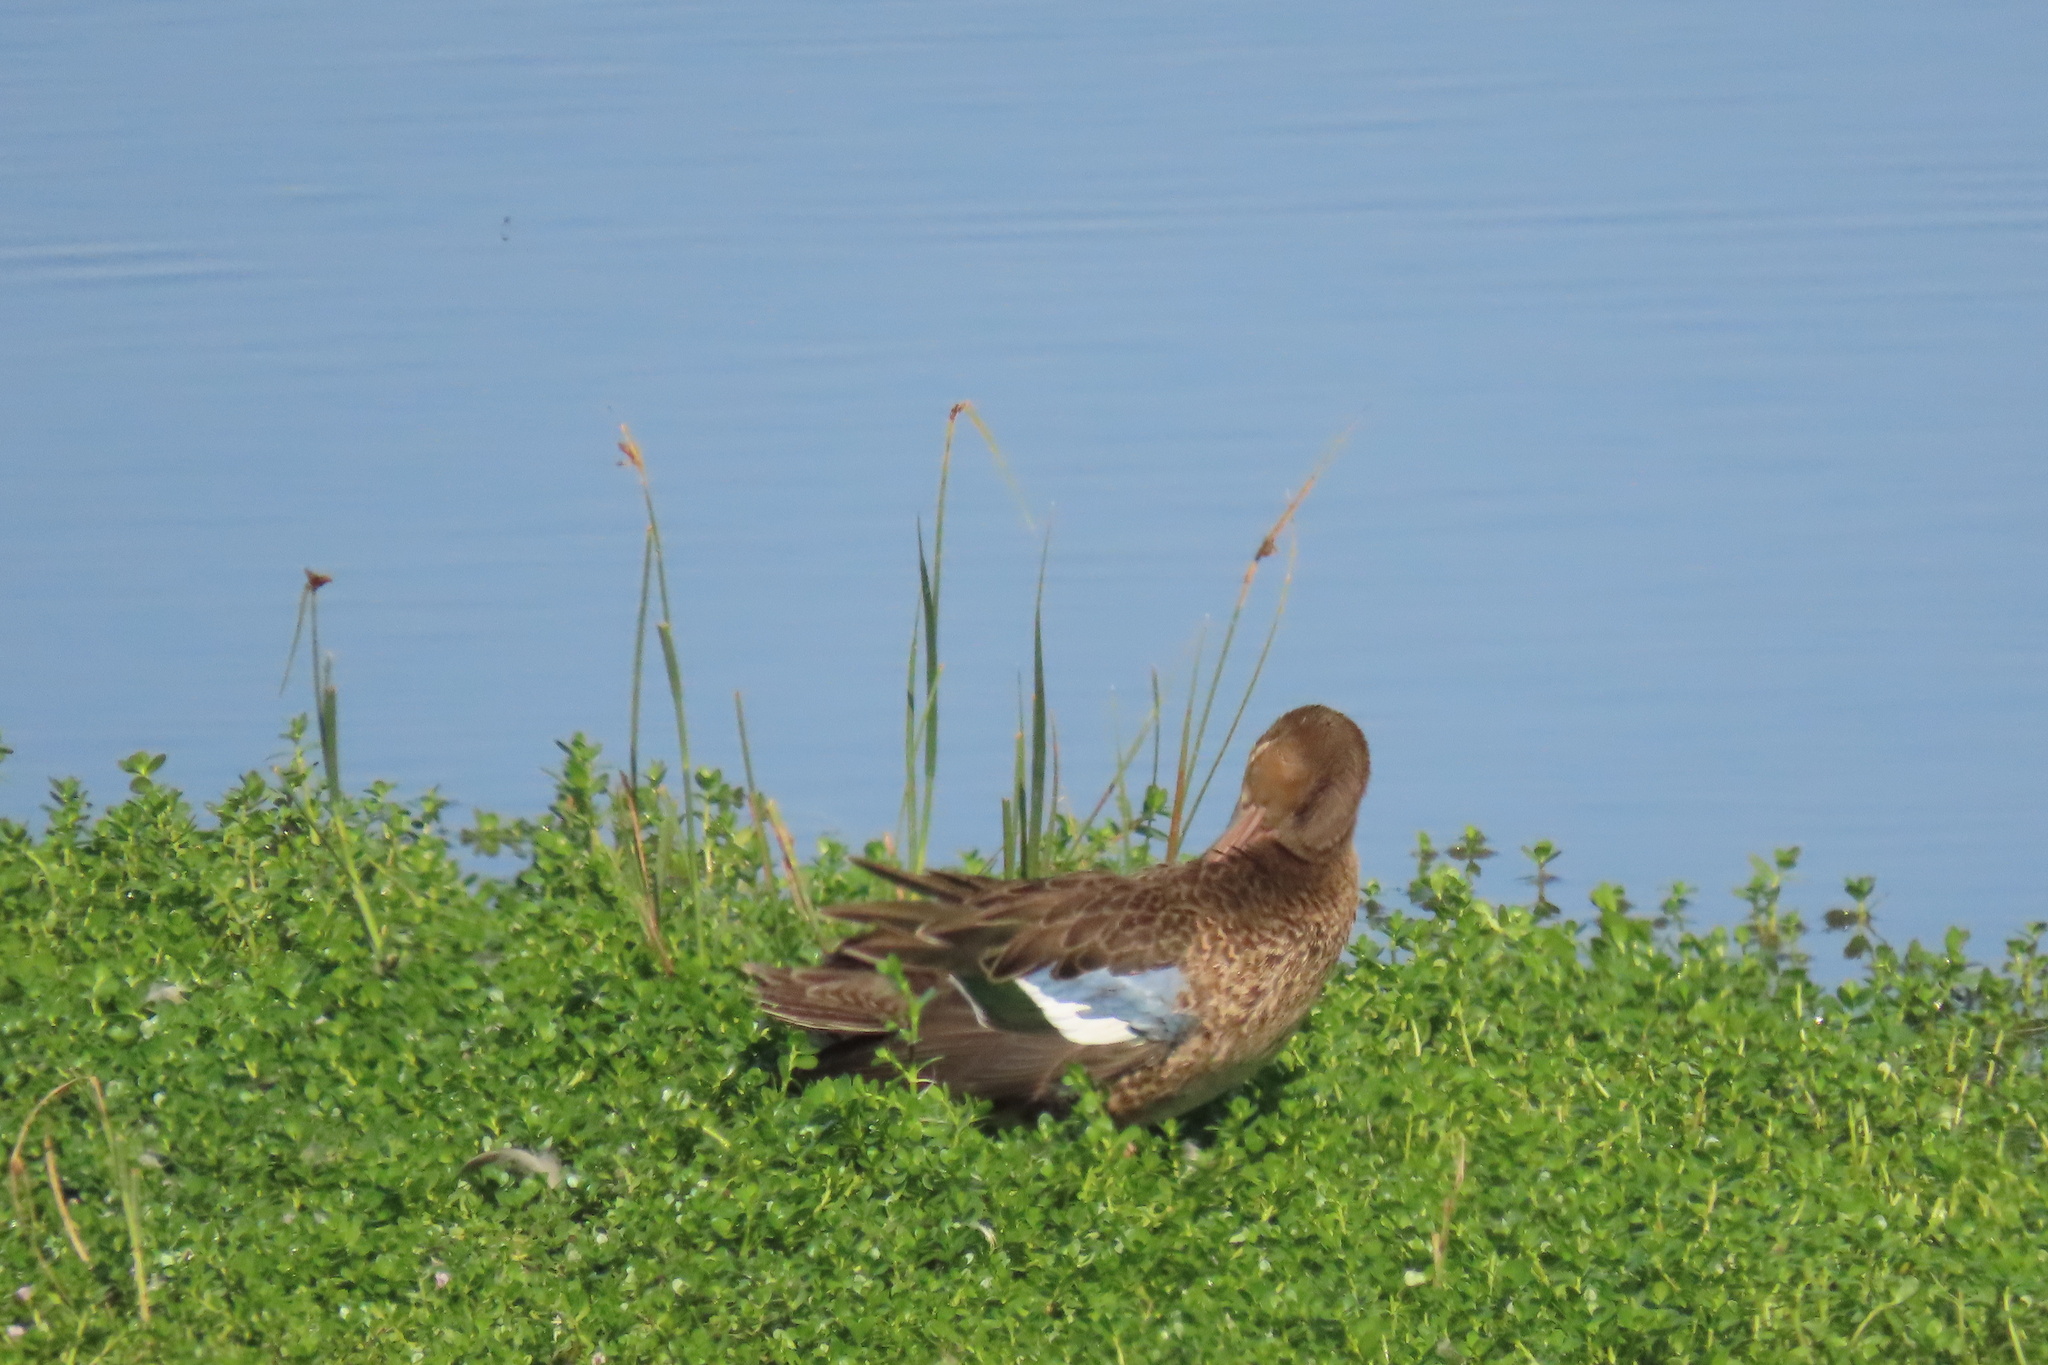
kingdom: Animalia
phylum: Chordata
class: Aves
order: Anseriformes
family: Anatidae
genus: Spatula
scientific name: Spatula cyanoptera
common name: Cinnamon teal
